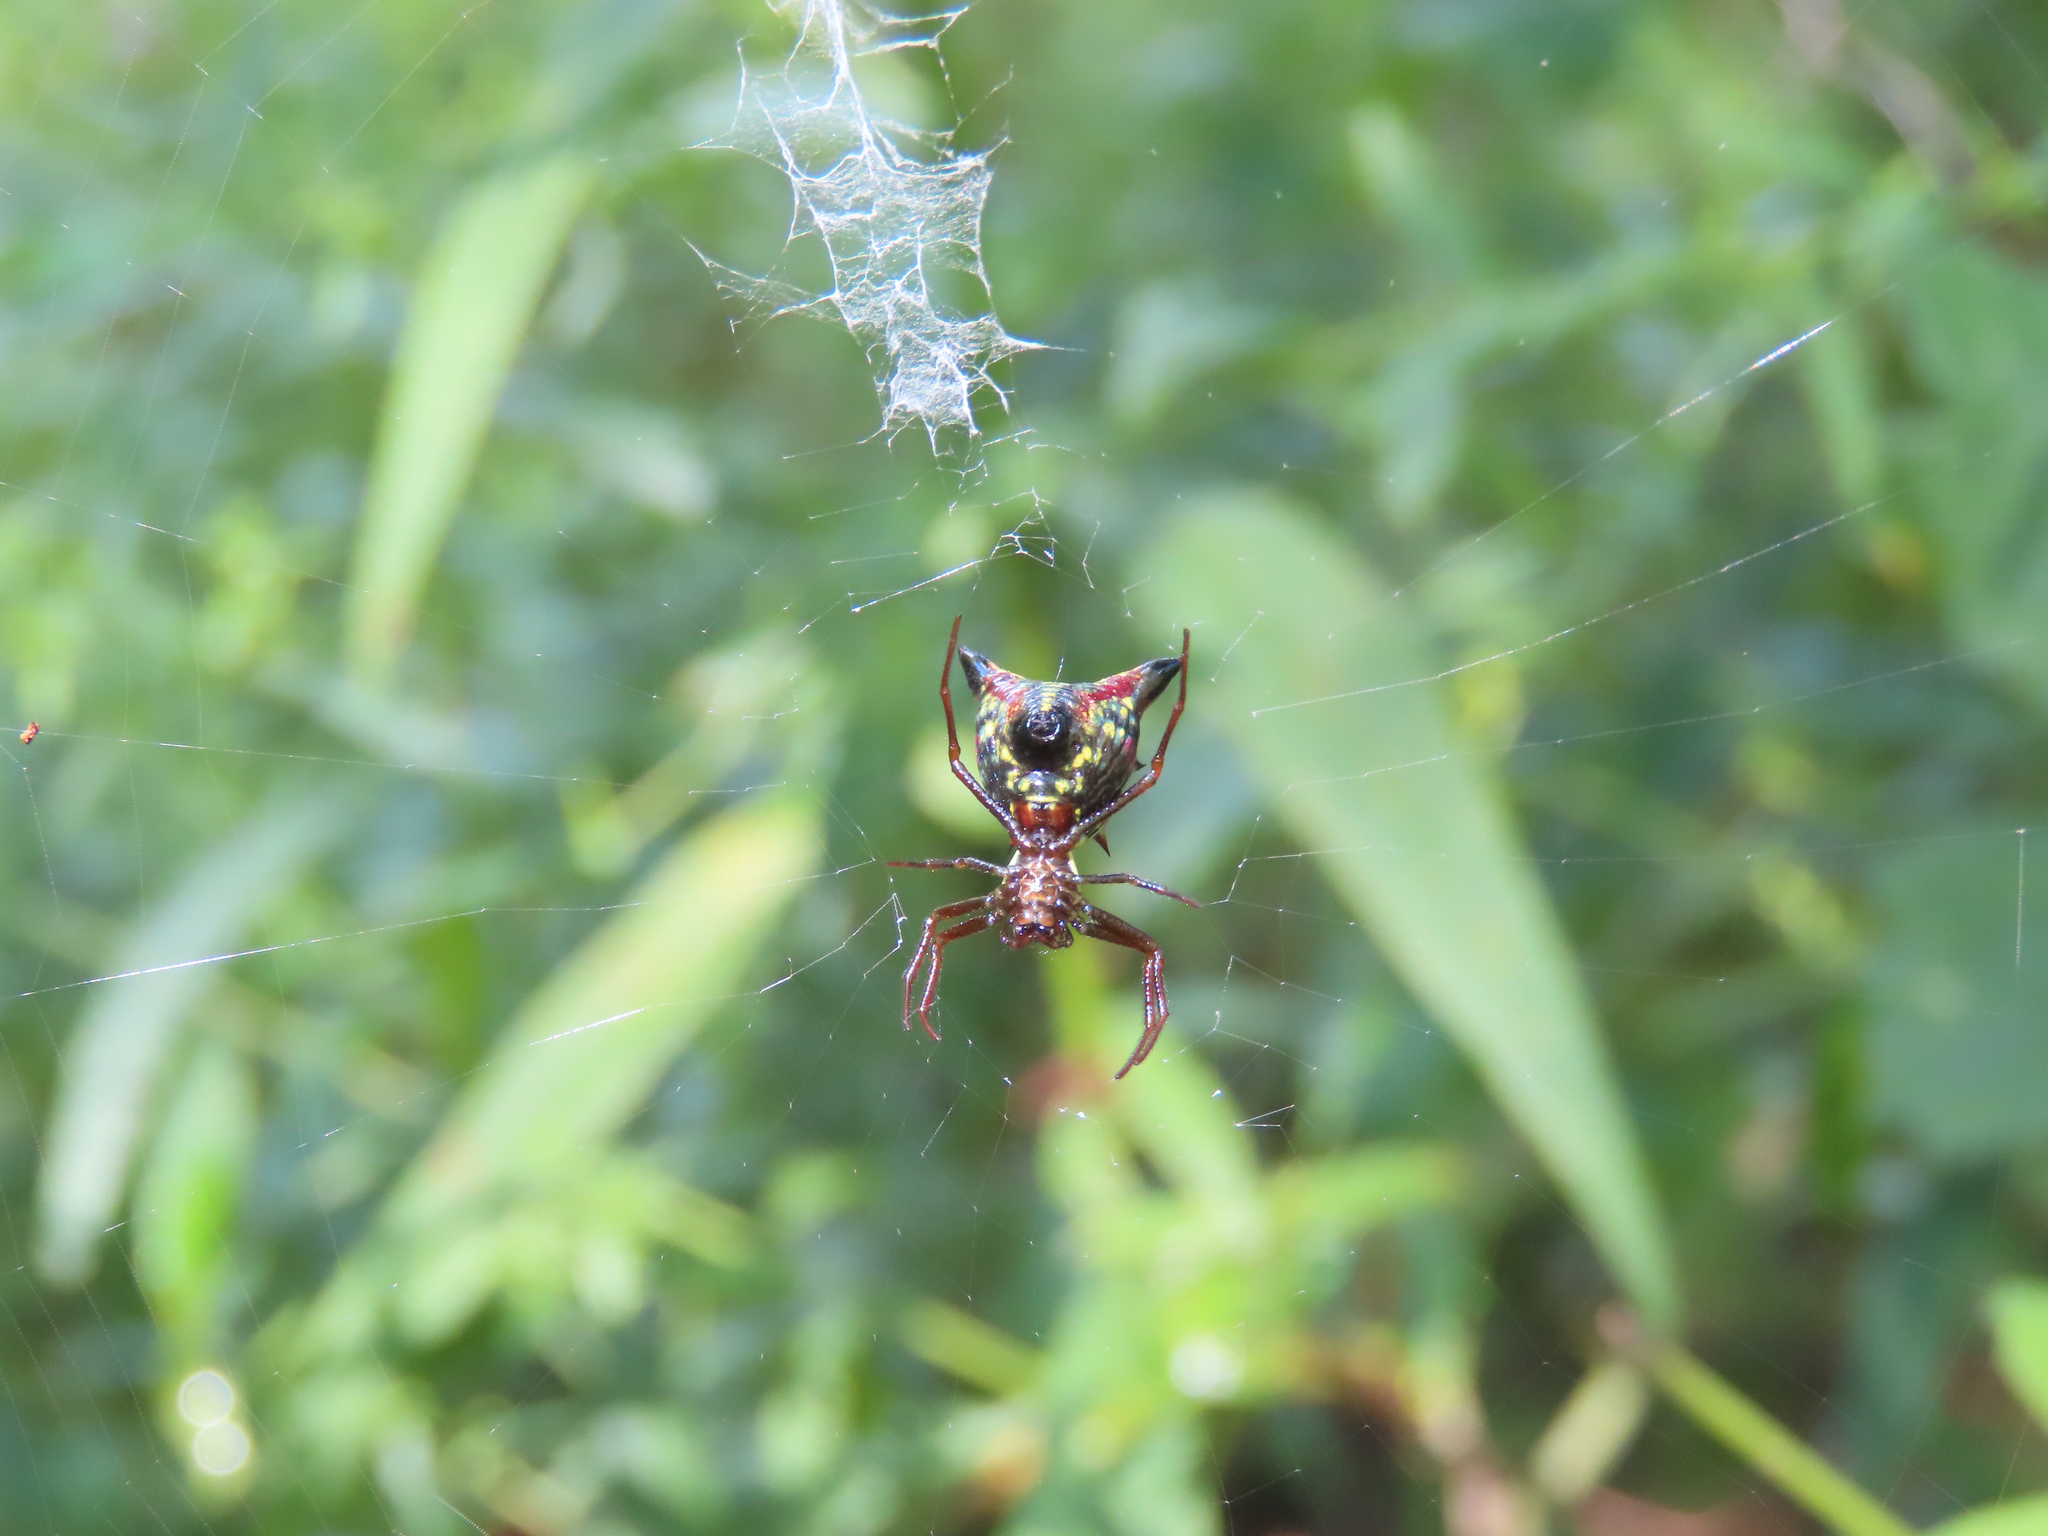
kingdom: Animalia
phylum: Arthropoda
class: Arachnida
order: Araneae
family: Araneidae
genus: Micrathena
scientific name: Micrathena sagittata
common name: Orb weavers
